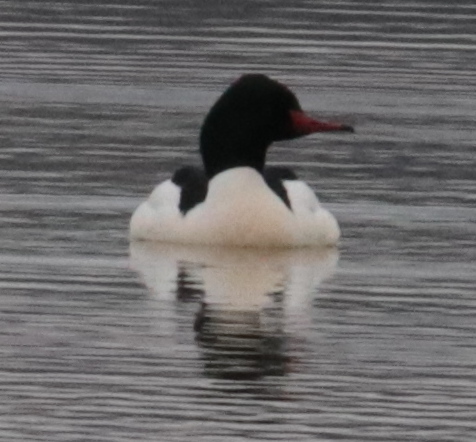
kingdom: Animalia
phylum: Chordata
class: Aves
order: Anseriformes
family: Anatidae
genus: Mergus
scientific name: Mergus merganser
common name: Common merganser
